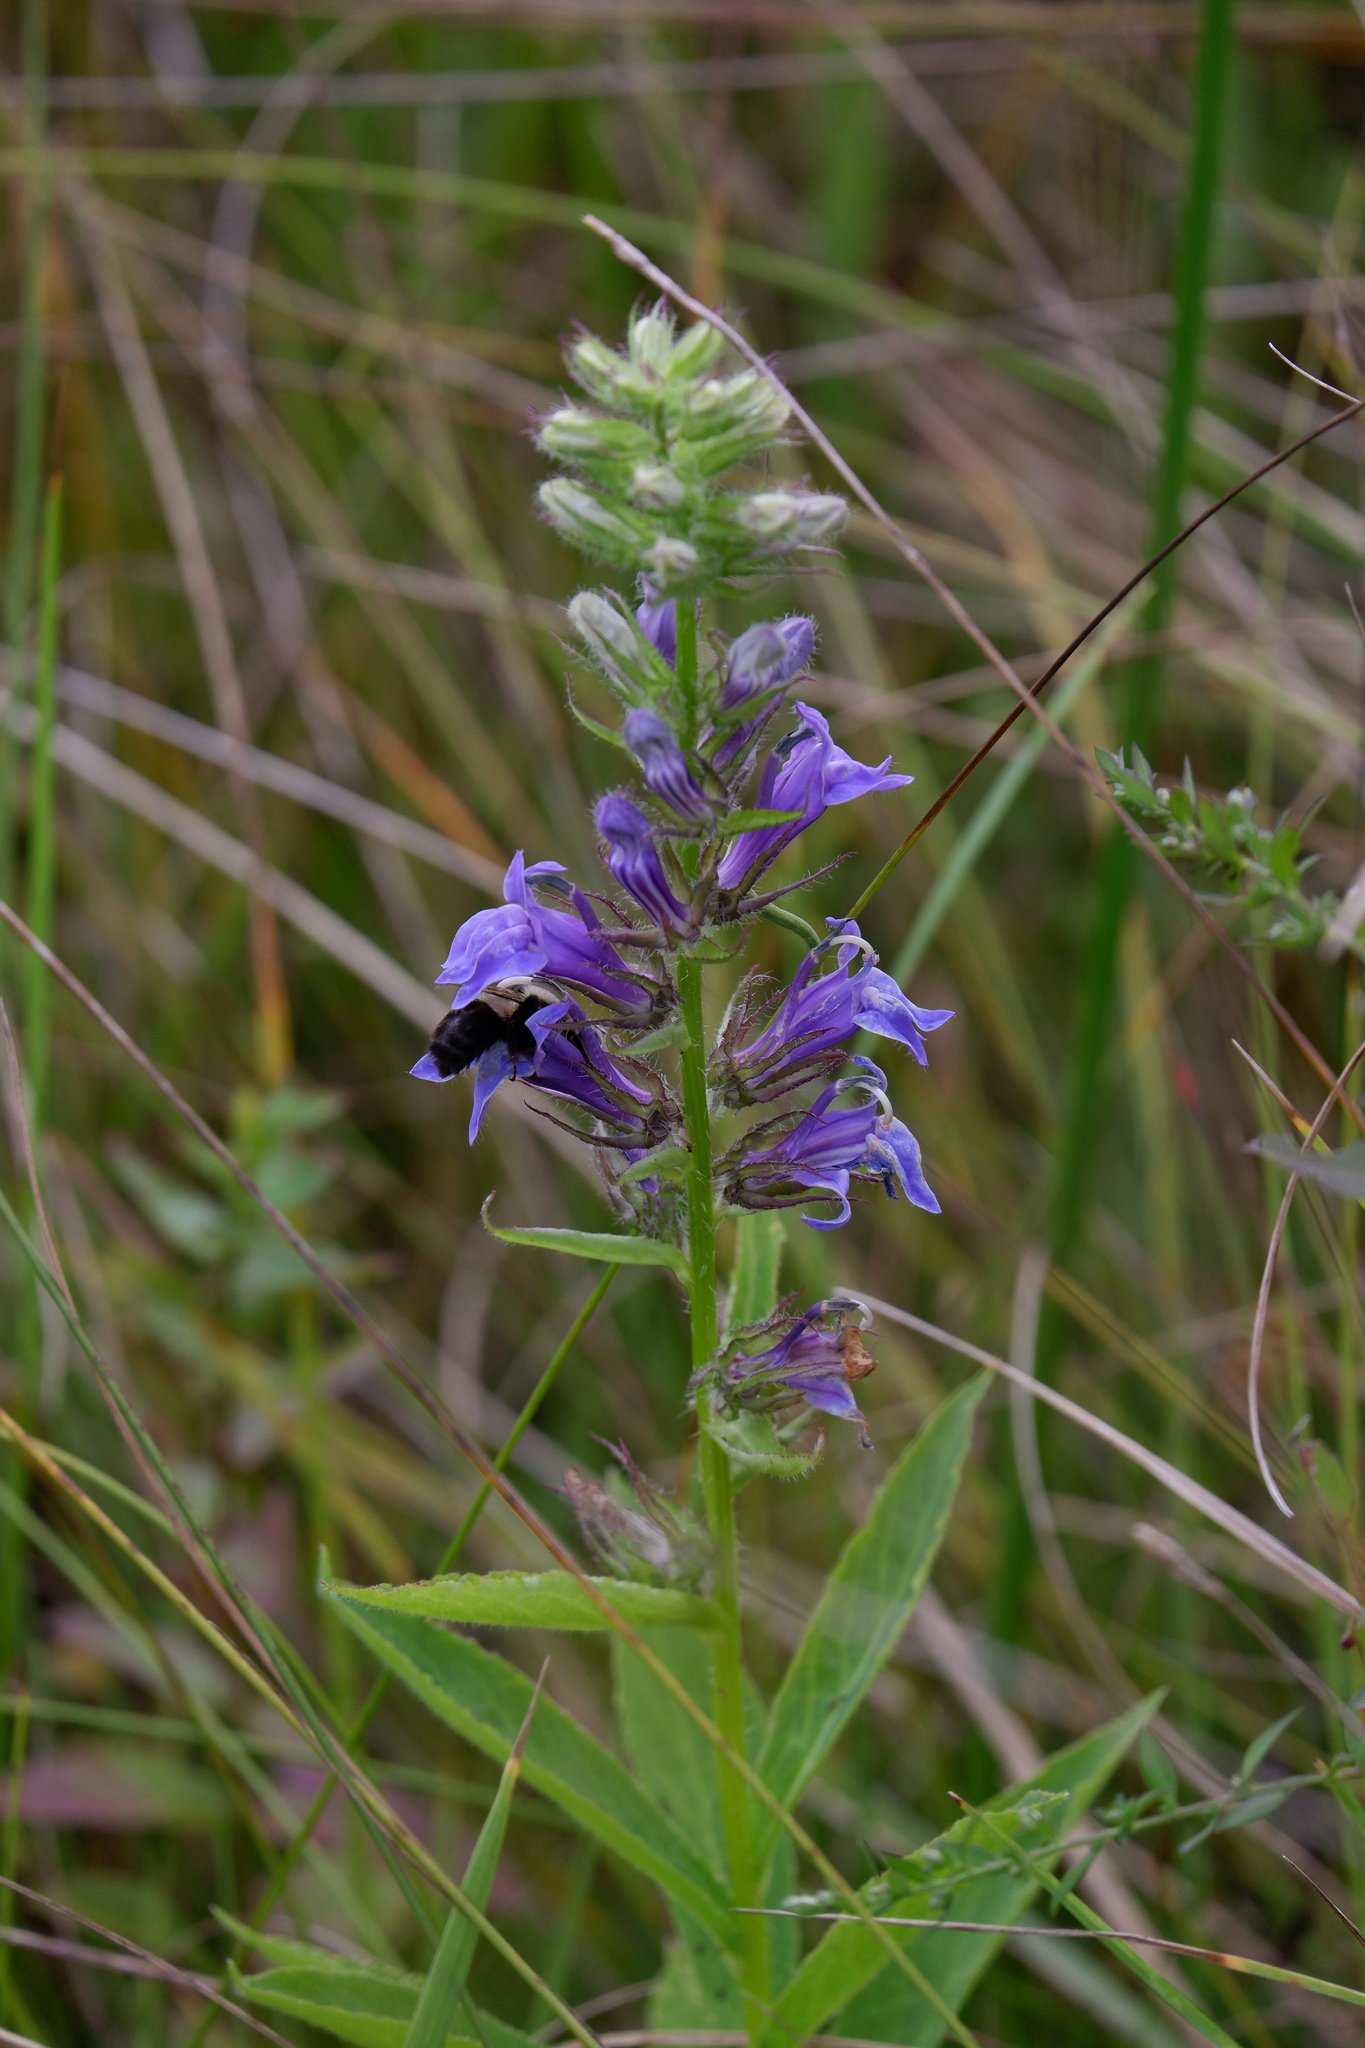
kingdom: Plantae
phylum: Tracheophyta
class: Magnoliopsida
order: Asterales
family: Campanulaceae
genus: Lobelia
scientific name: Lobelia siphilitica
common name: Great lobelia
